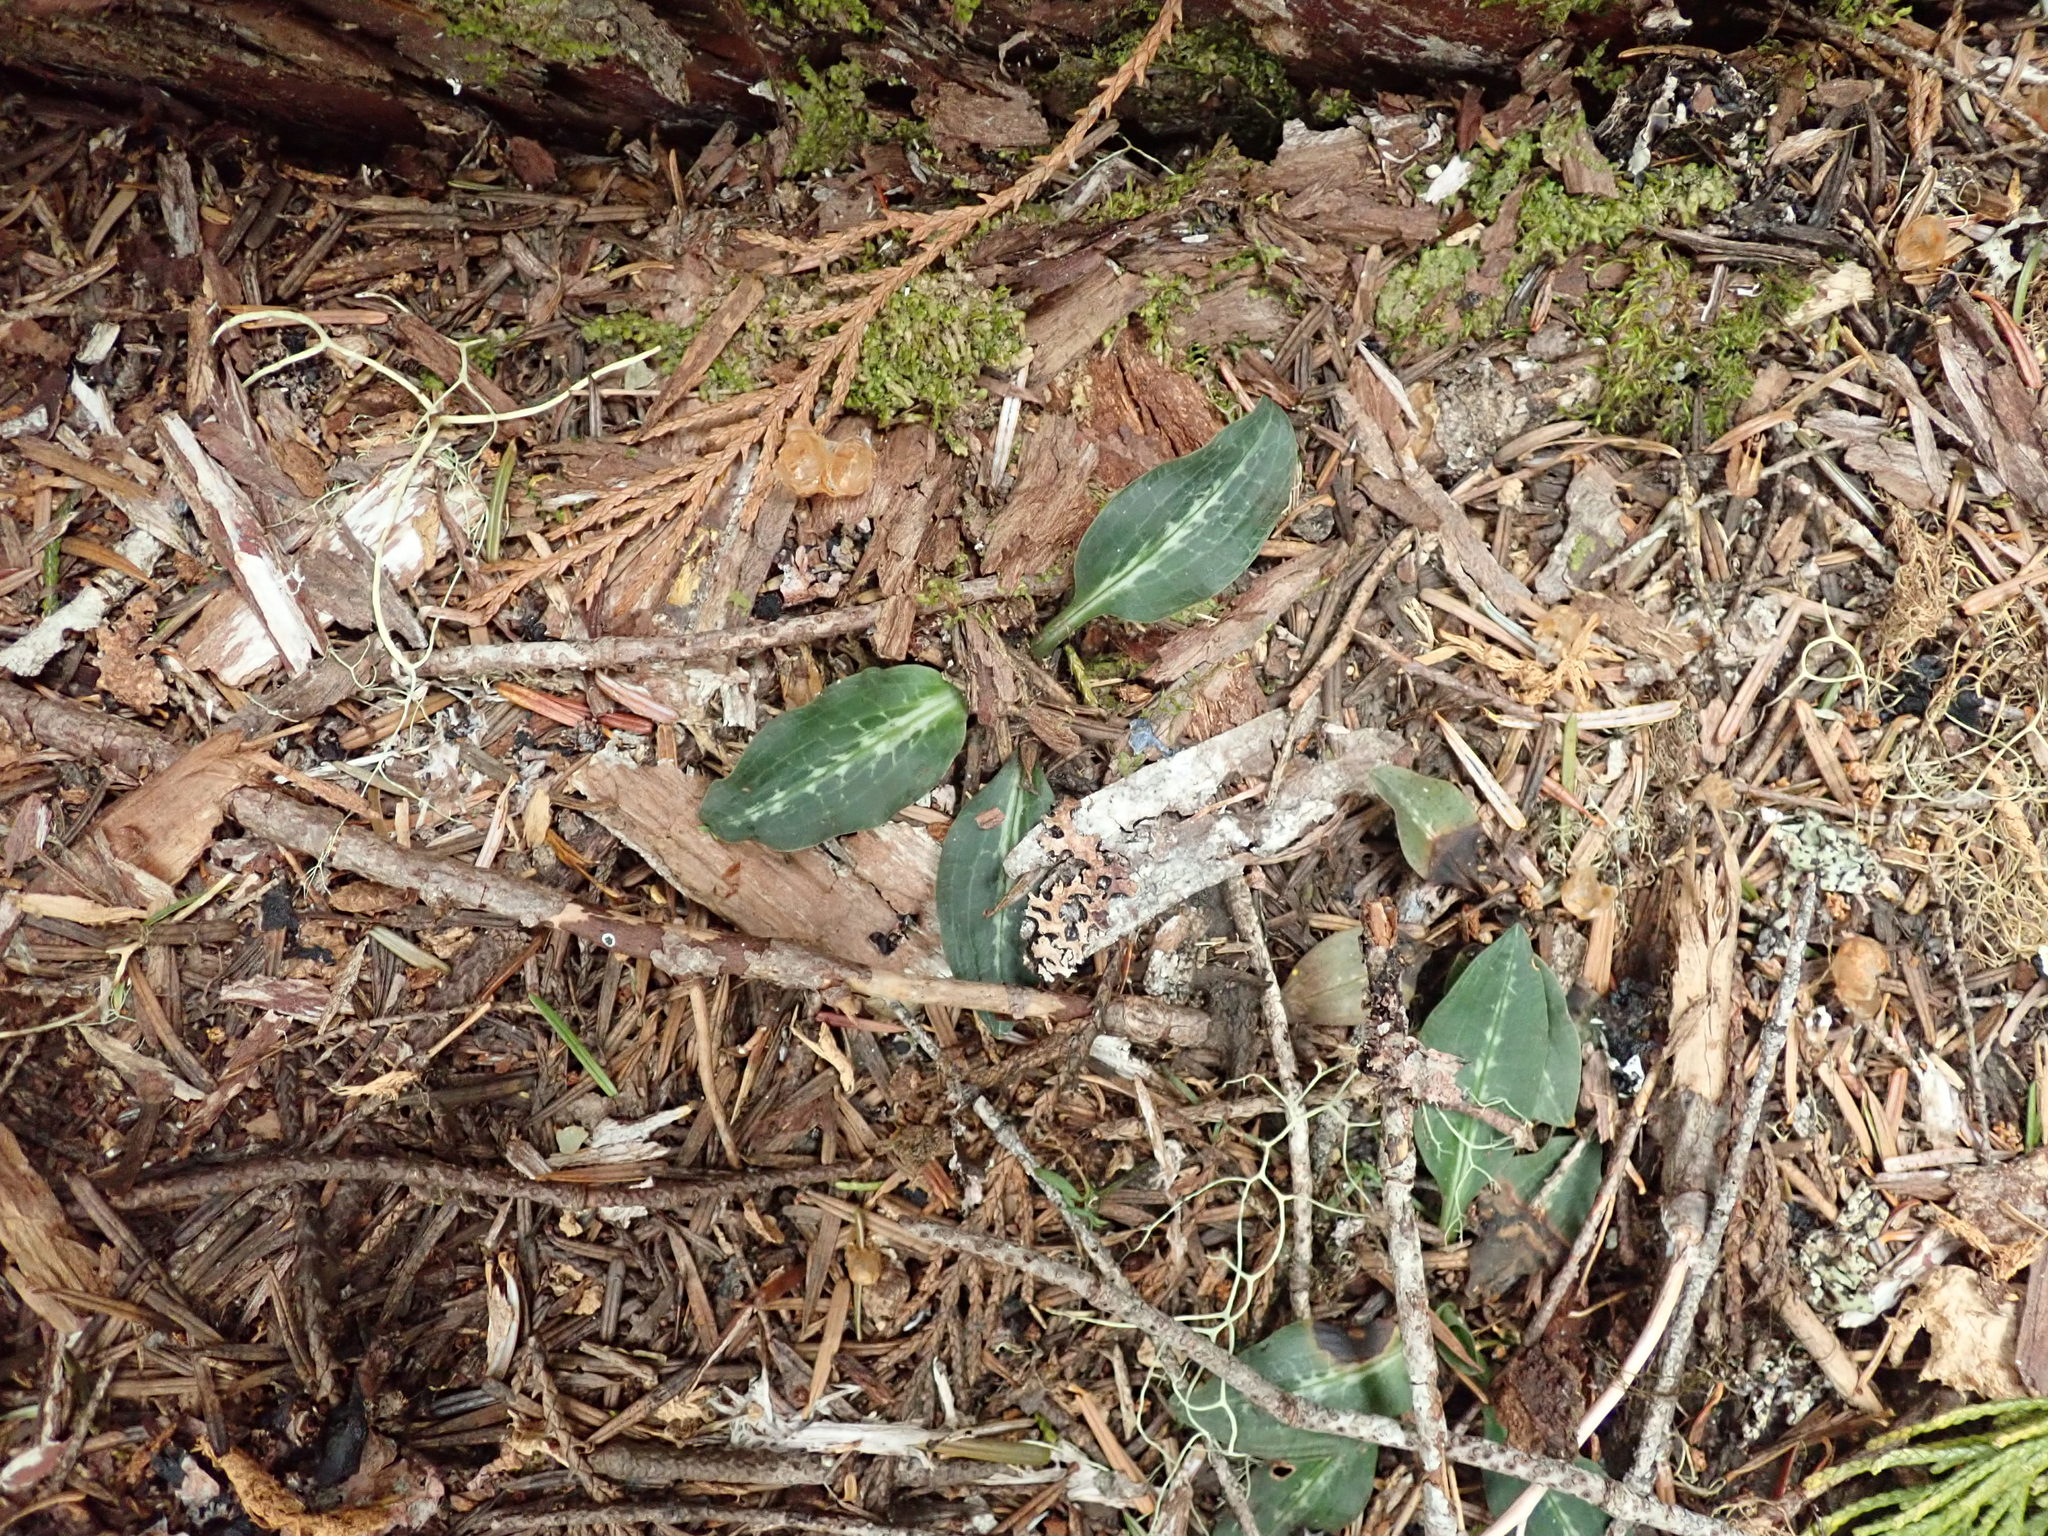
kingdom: Plantae
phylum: Tracheophyta
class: Liliopsida
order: Asparagales
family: Orchidaceae
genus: Goodyera
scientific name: Goodyera oblongifolia
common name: Giant rattlesnake-plantain
